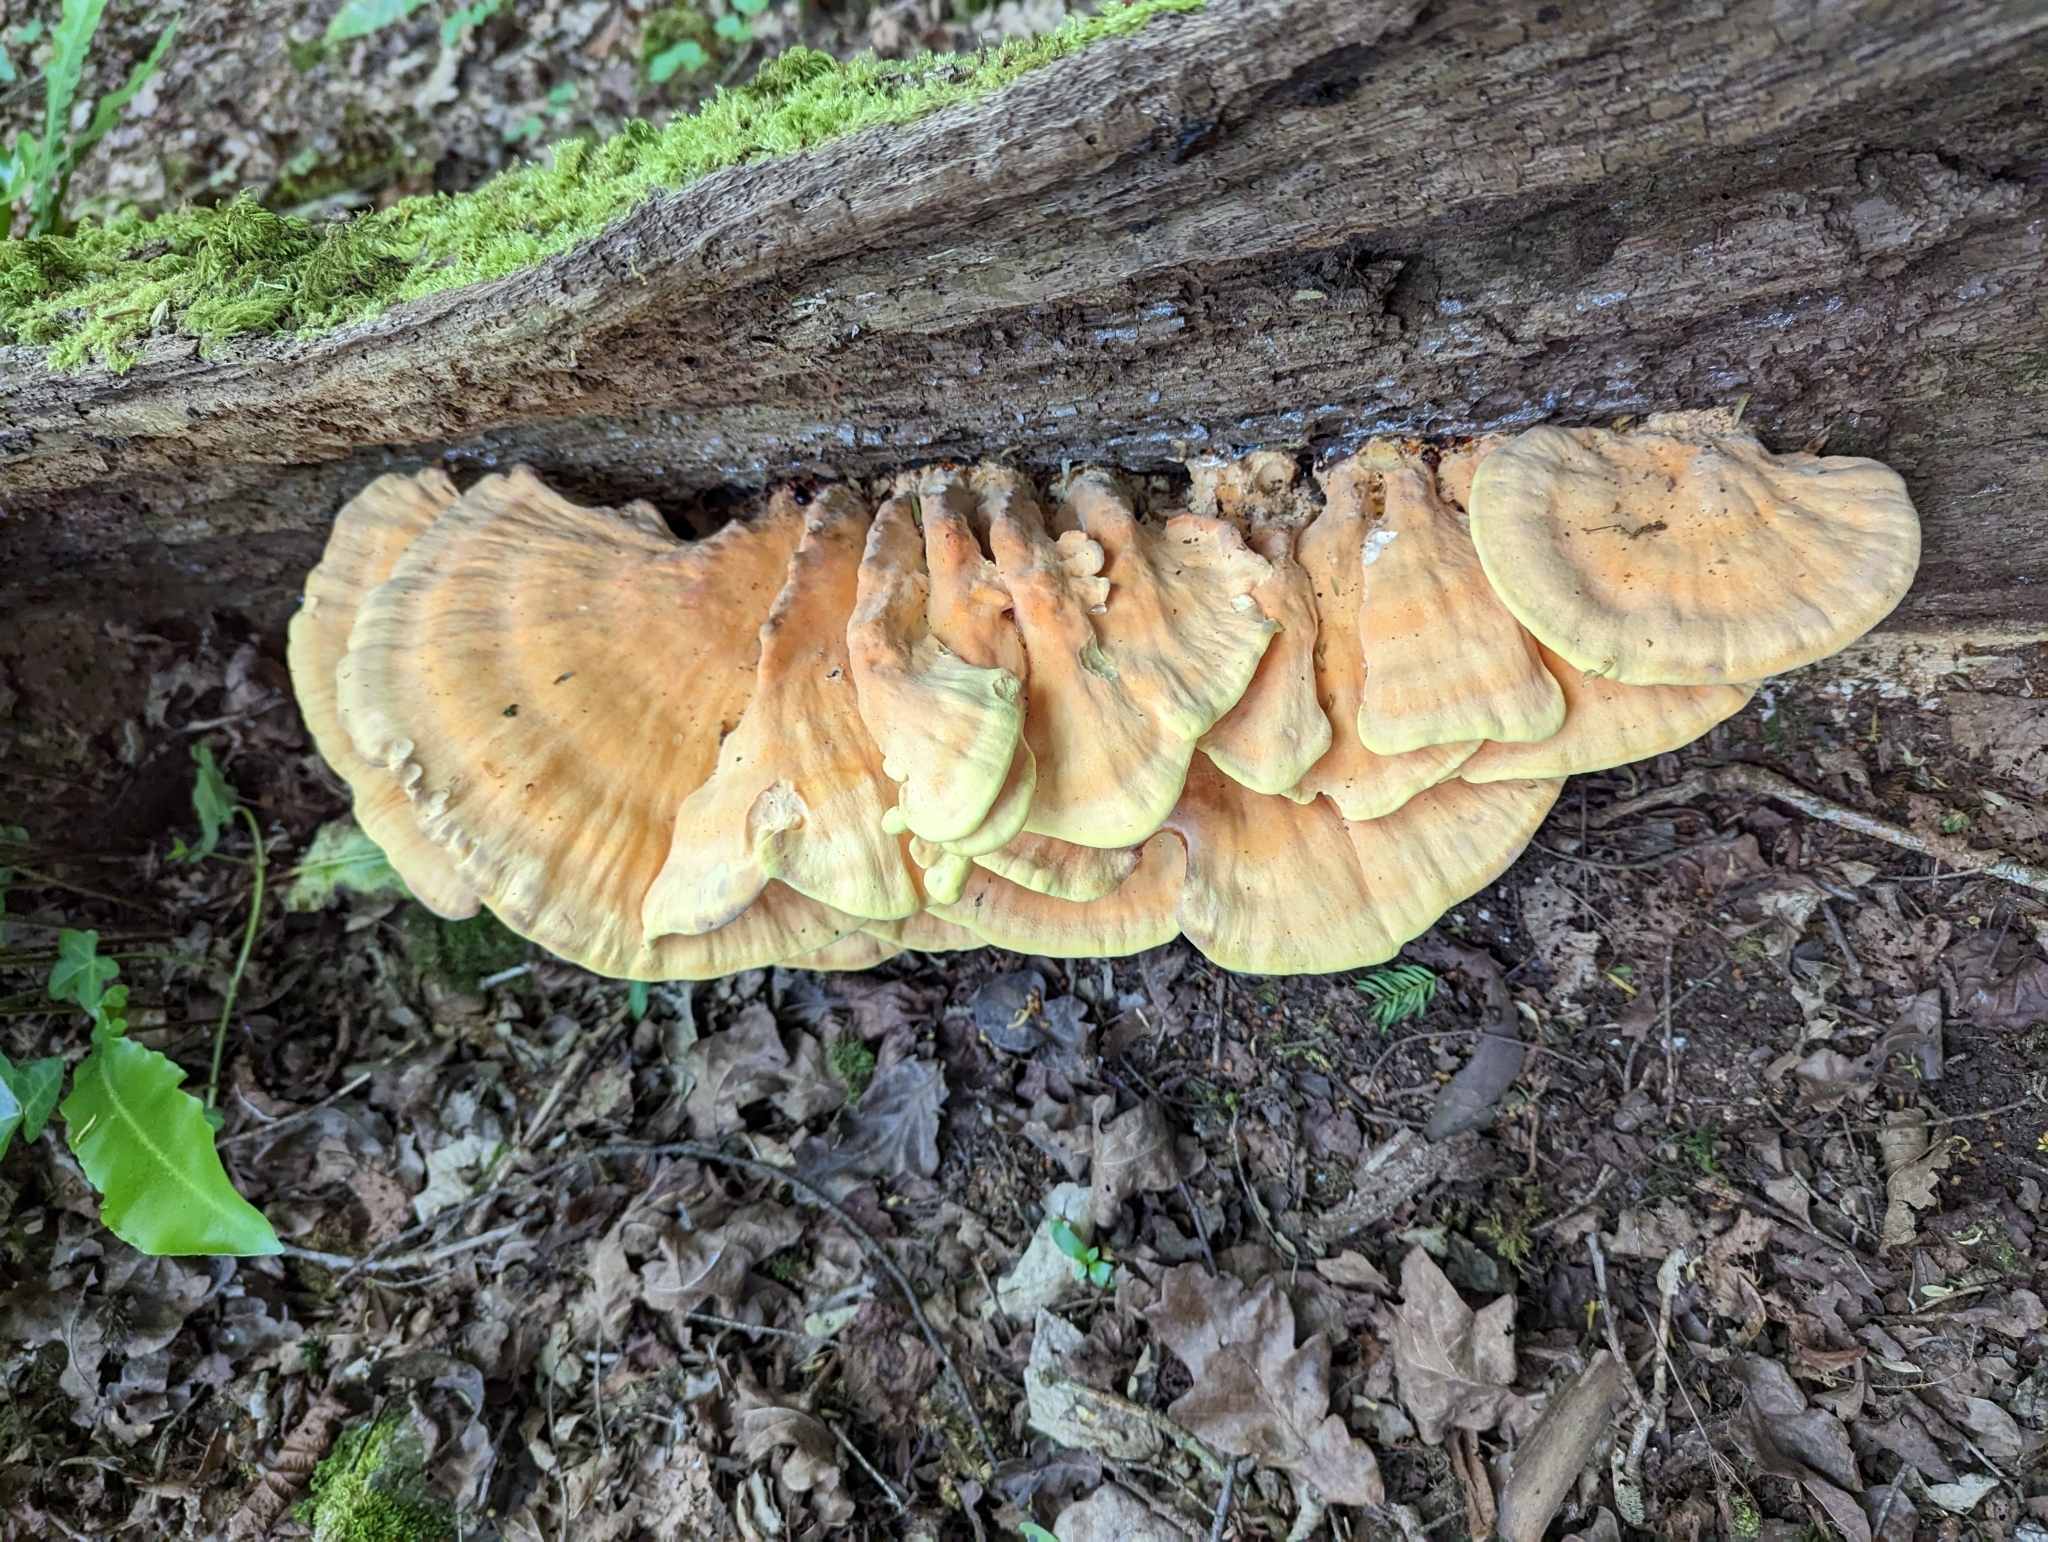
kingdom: Fungi
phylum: Basidiomycota
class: Agaricomycetes
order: Polyporales
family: Laetiporaceae
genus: Laetiporus
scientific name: Laetiporus sulphureus
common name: Chicken of the woods
